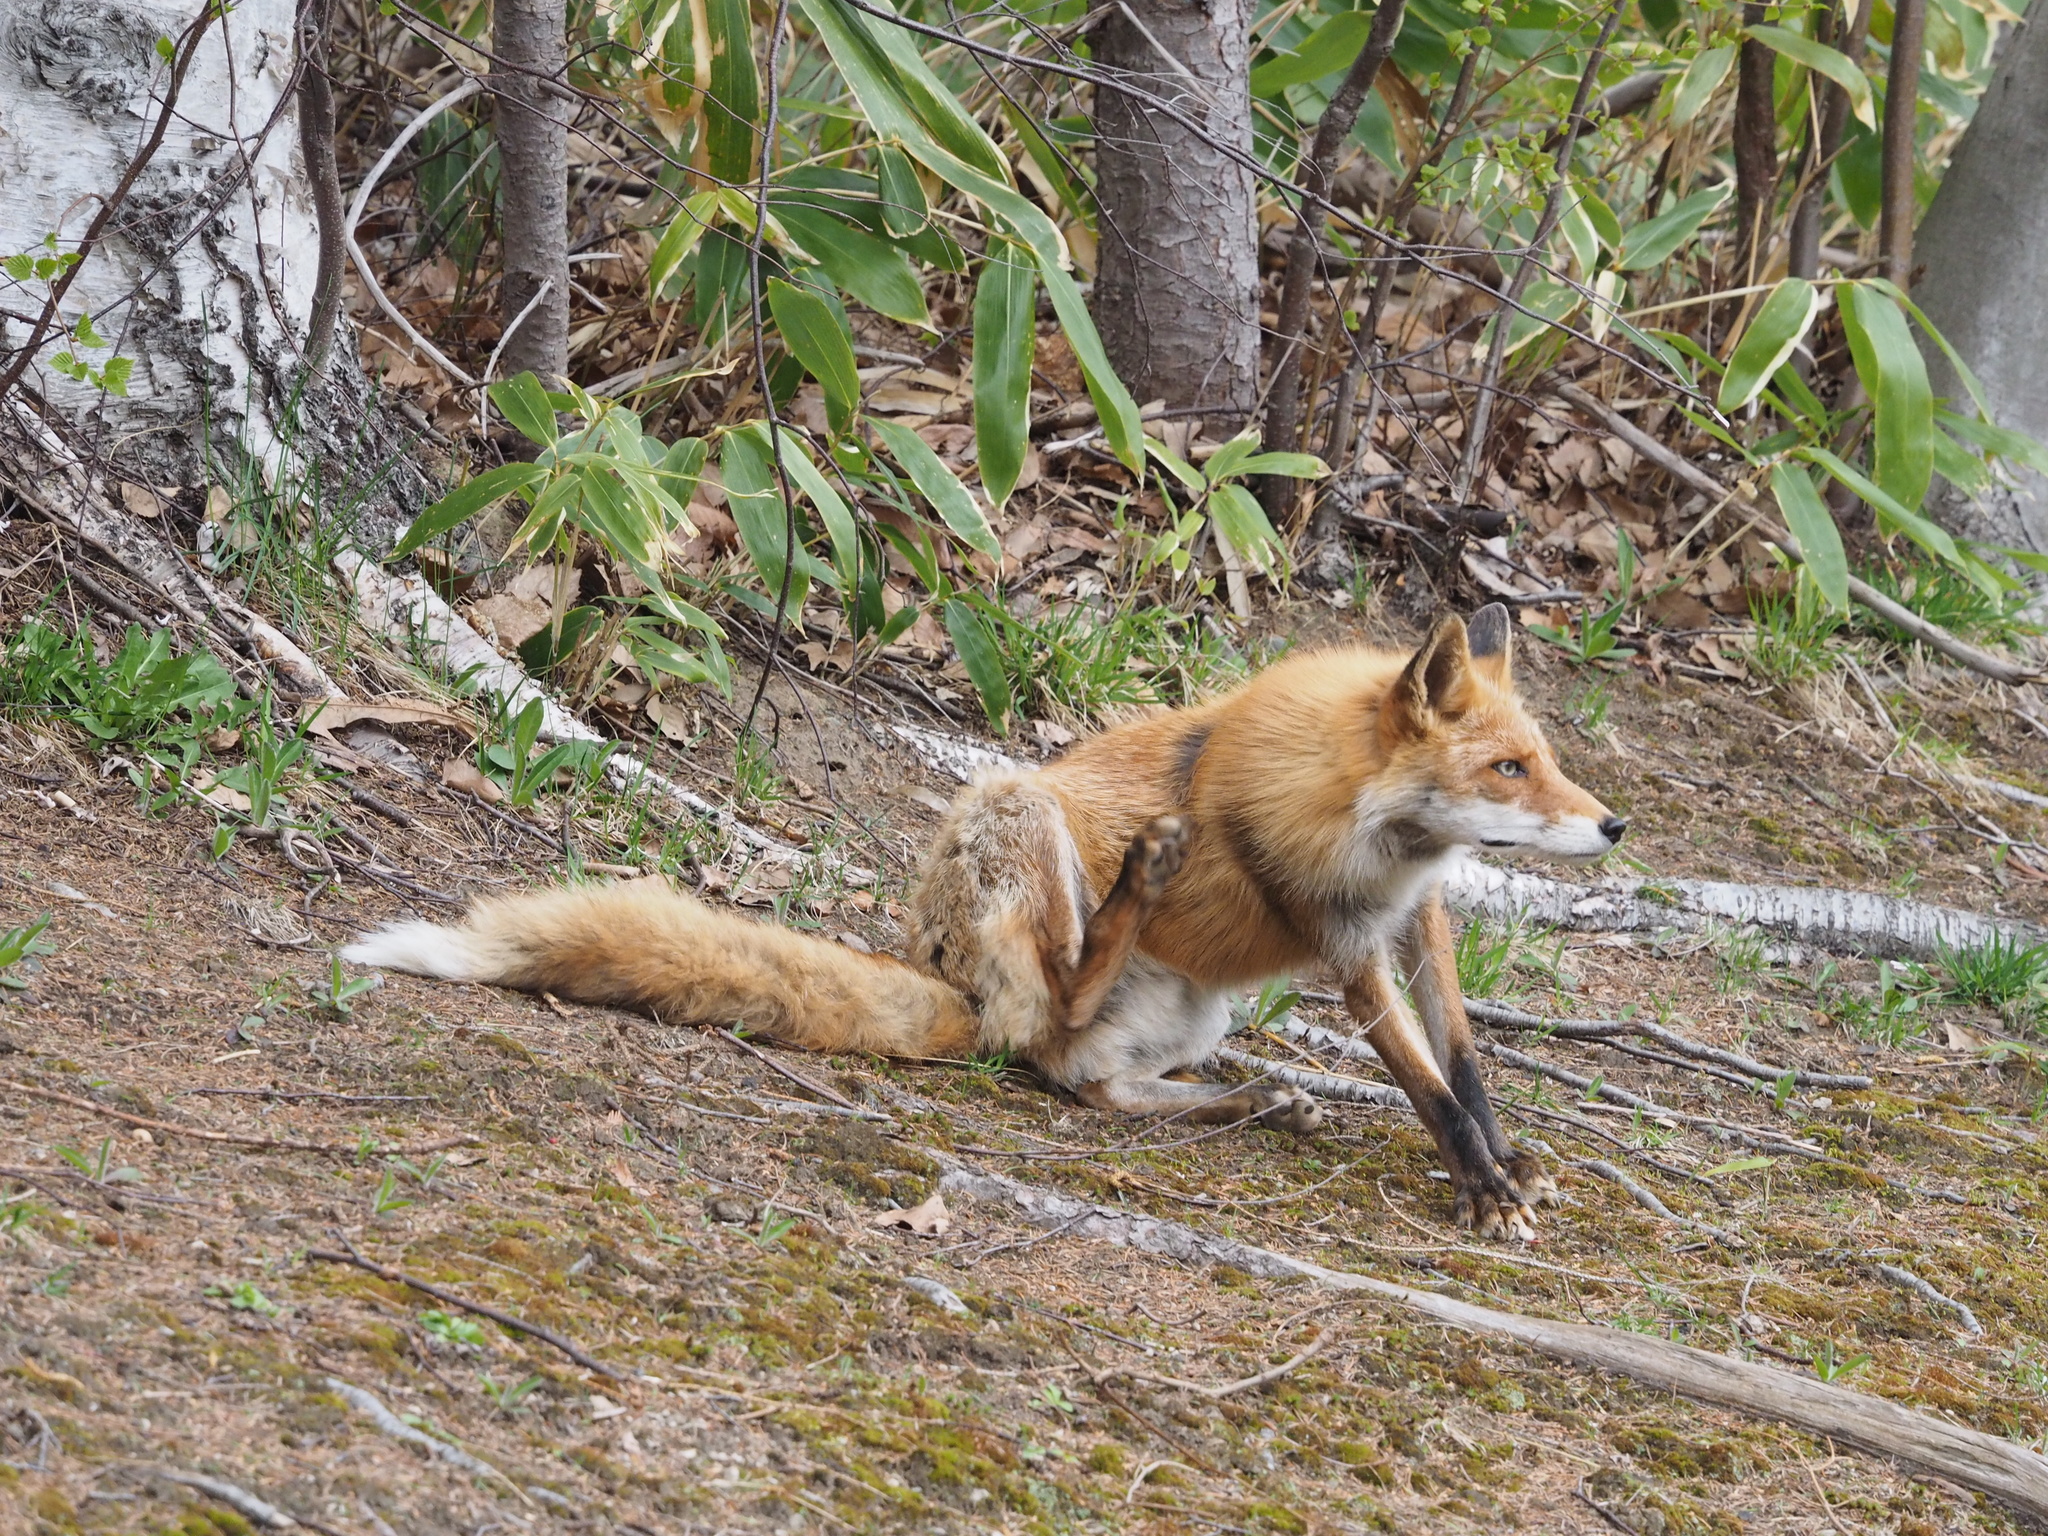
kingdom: Animalia
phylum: Chordata
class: Mammalia
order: Carnivora
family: Canidae
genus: Vulpes
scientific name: Vulpes vulpes
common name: Red fox
